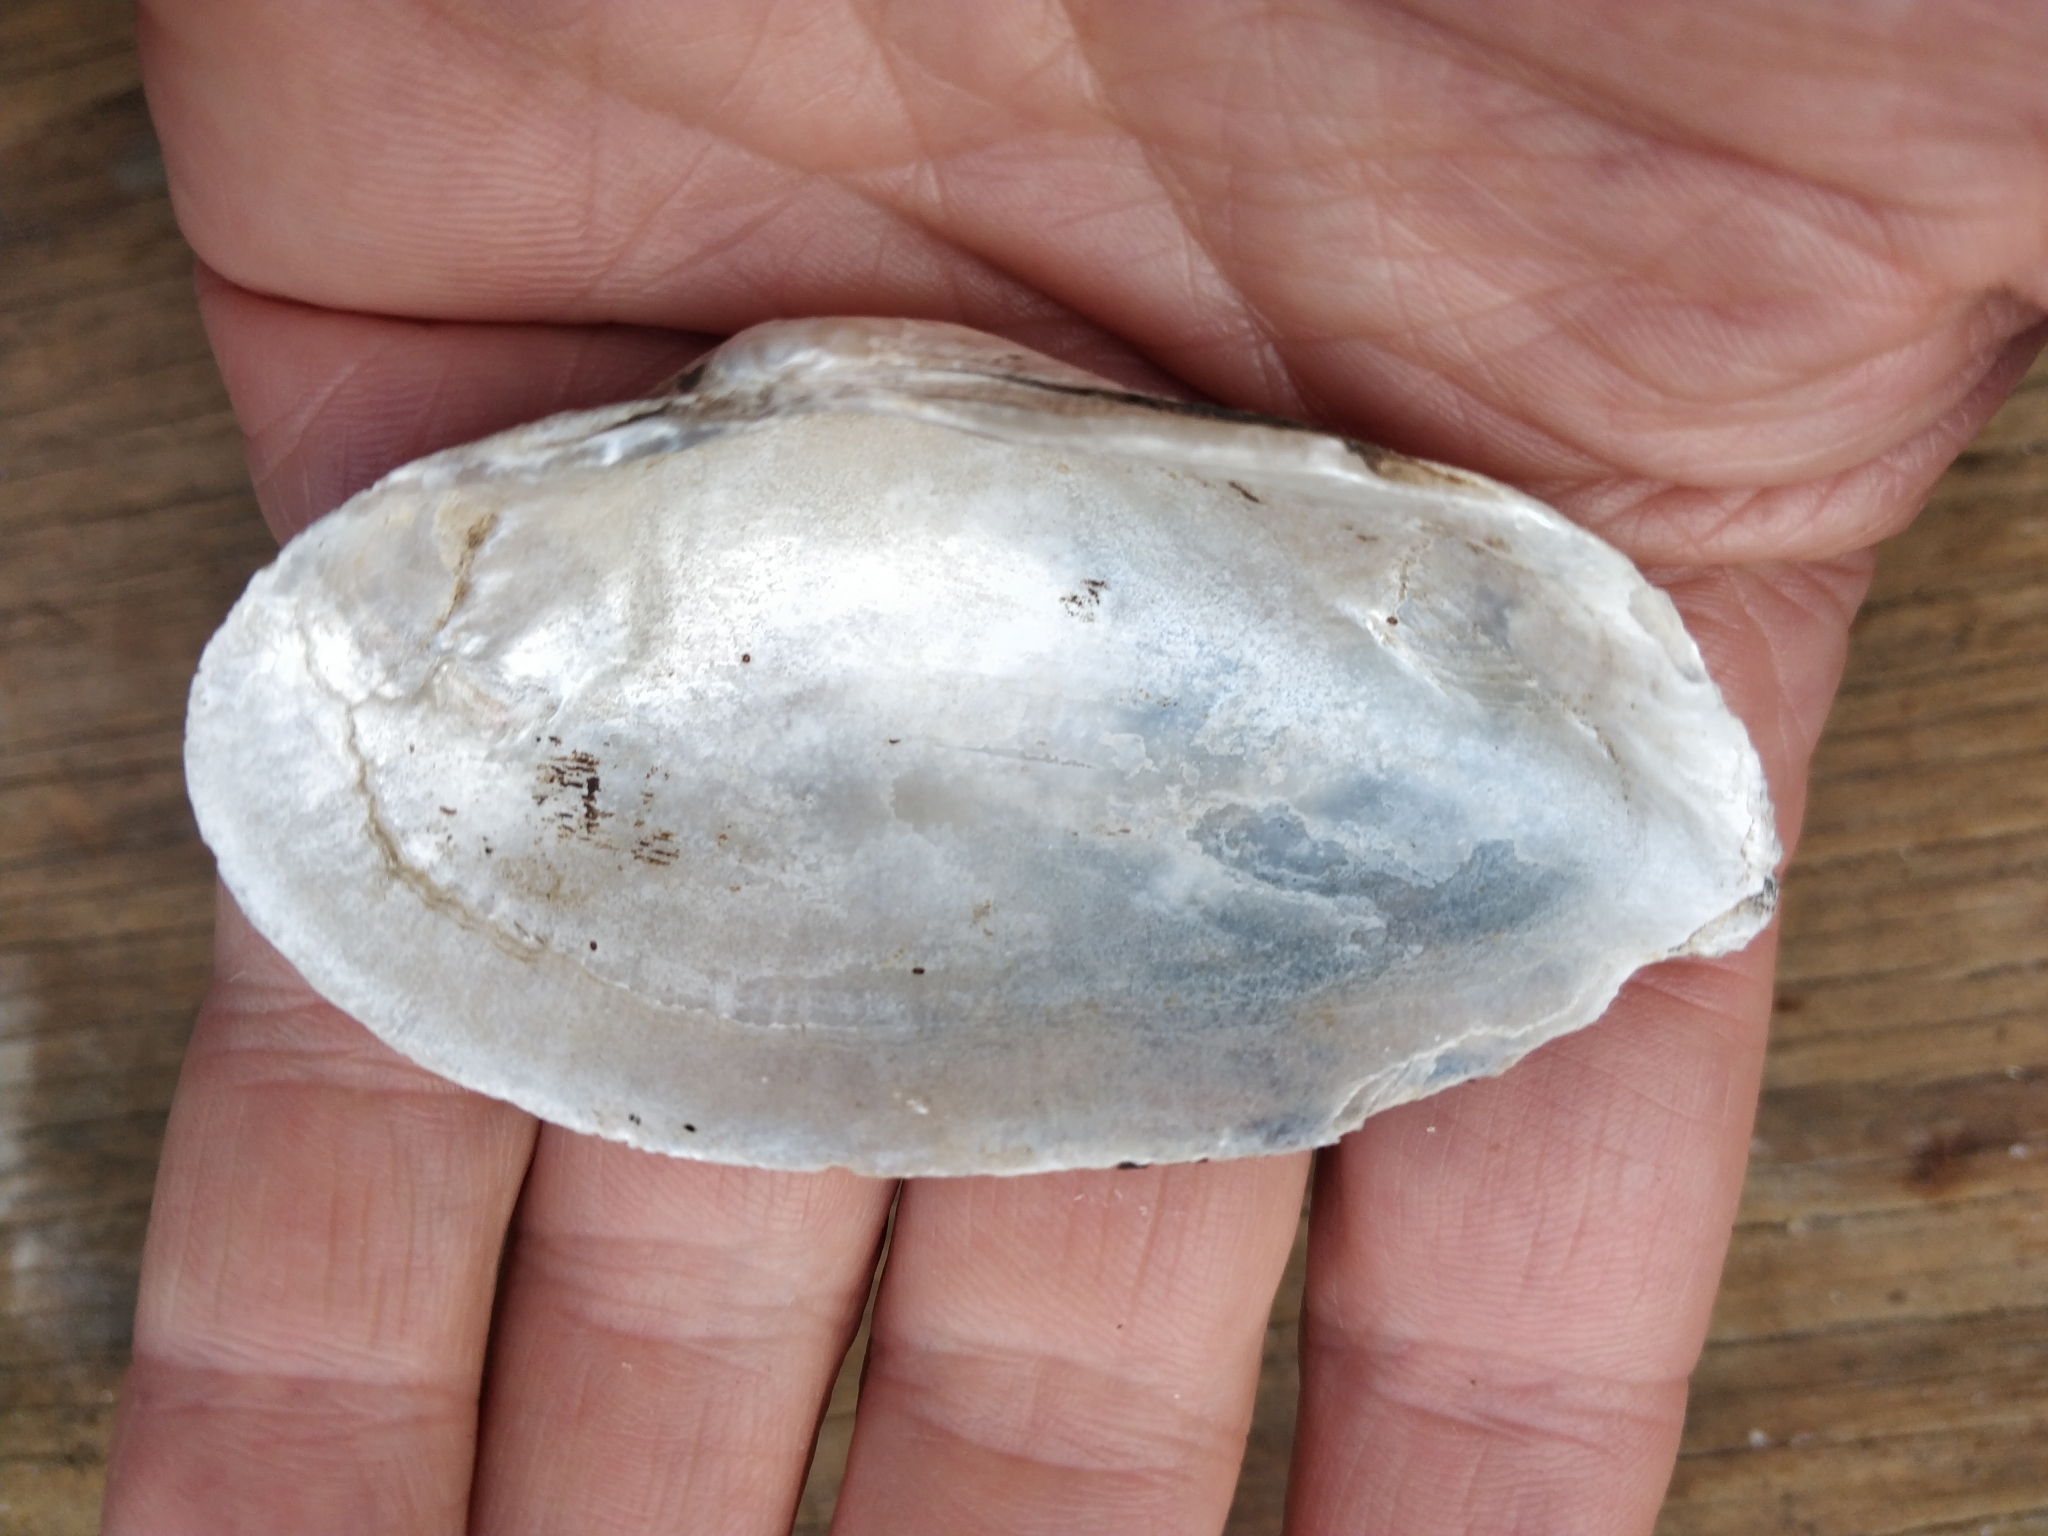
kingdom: Animalia
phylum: Mollusca
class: Bivalvia
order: Unionida
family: Unionidae
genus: Strophitus
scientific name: Strophitus undulatus
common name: Creeper
